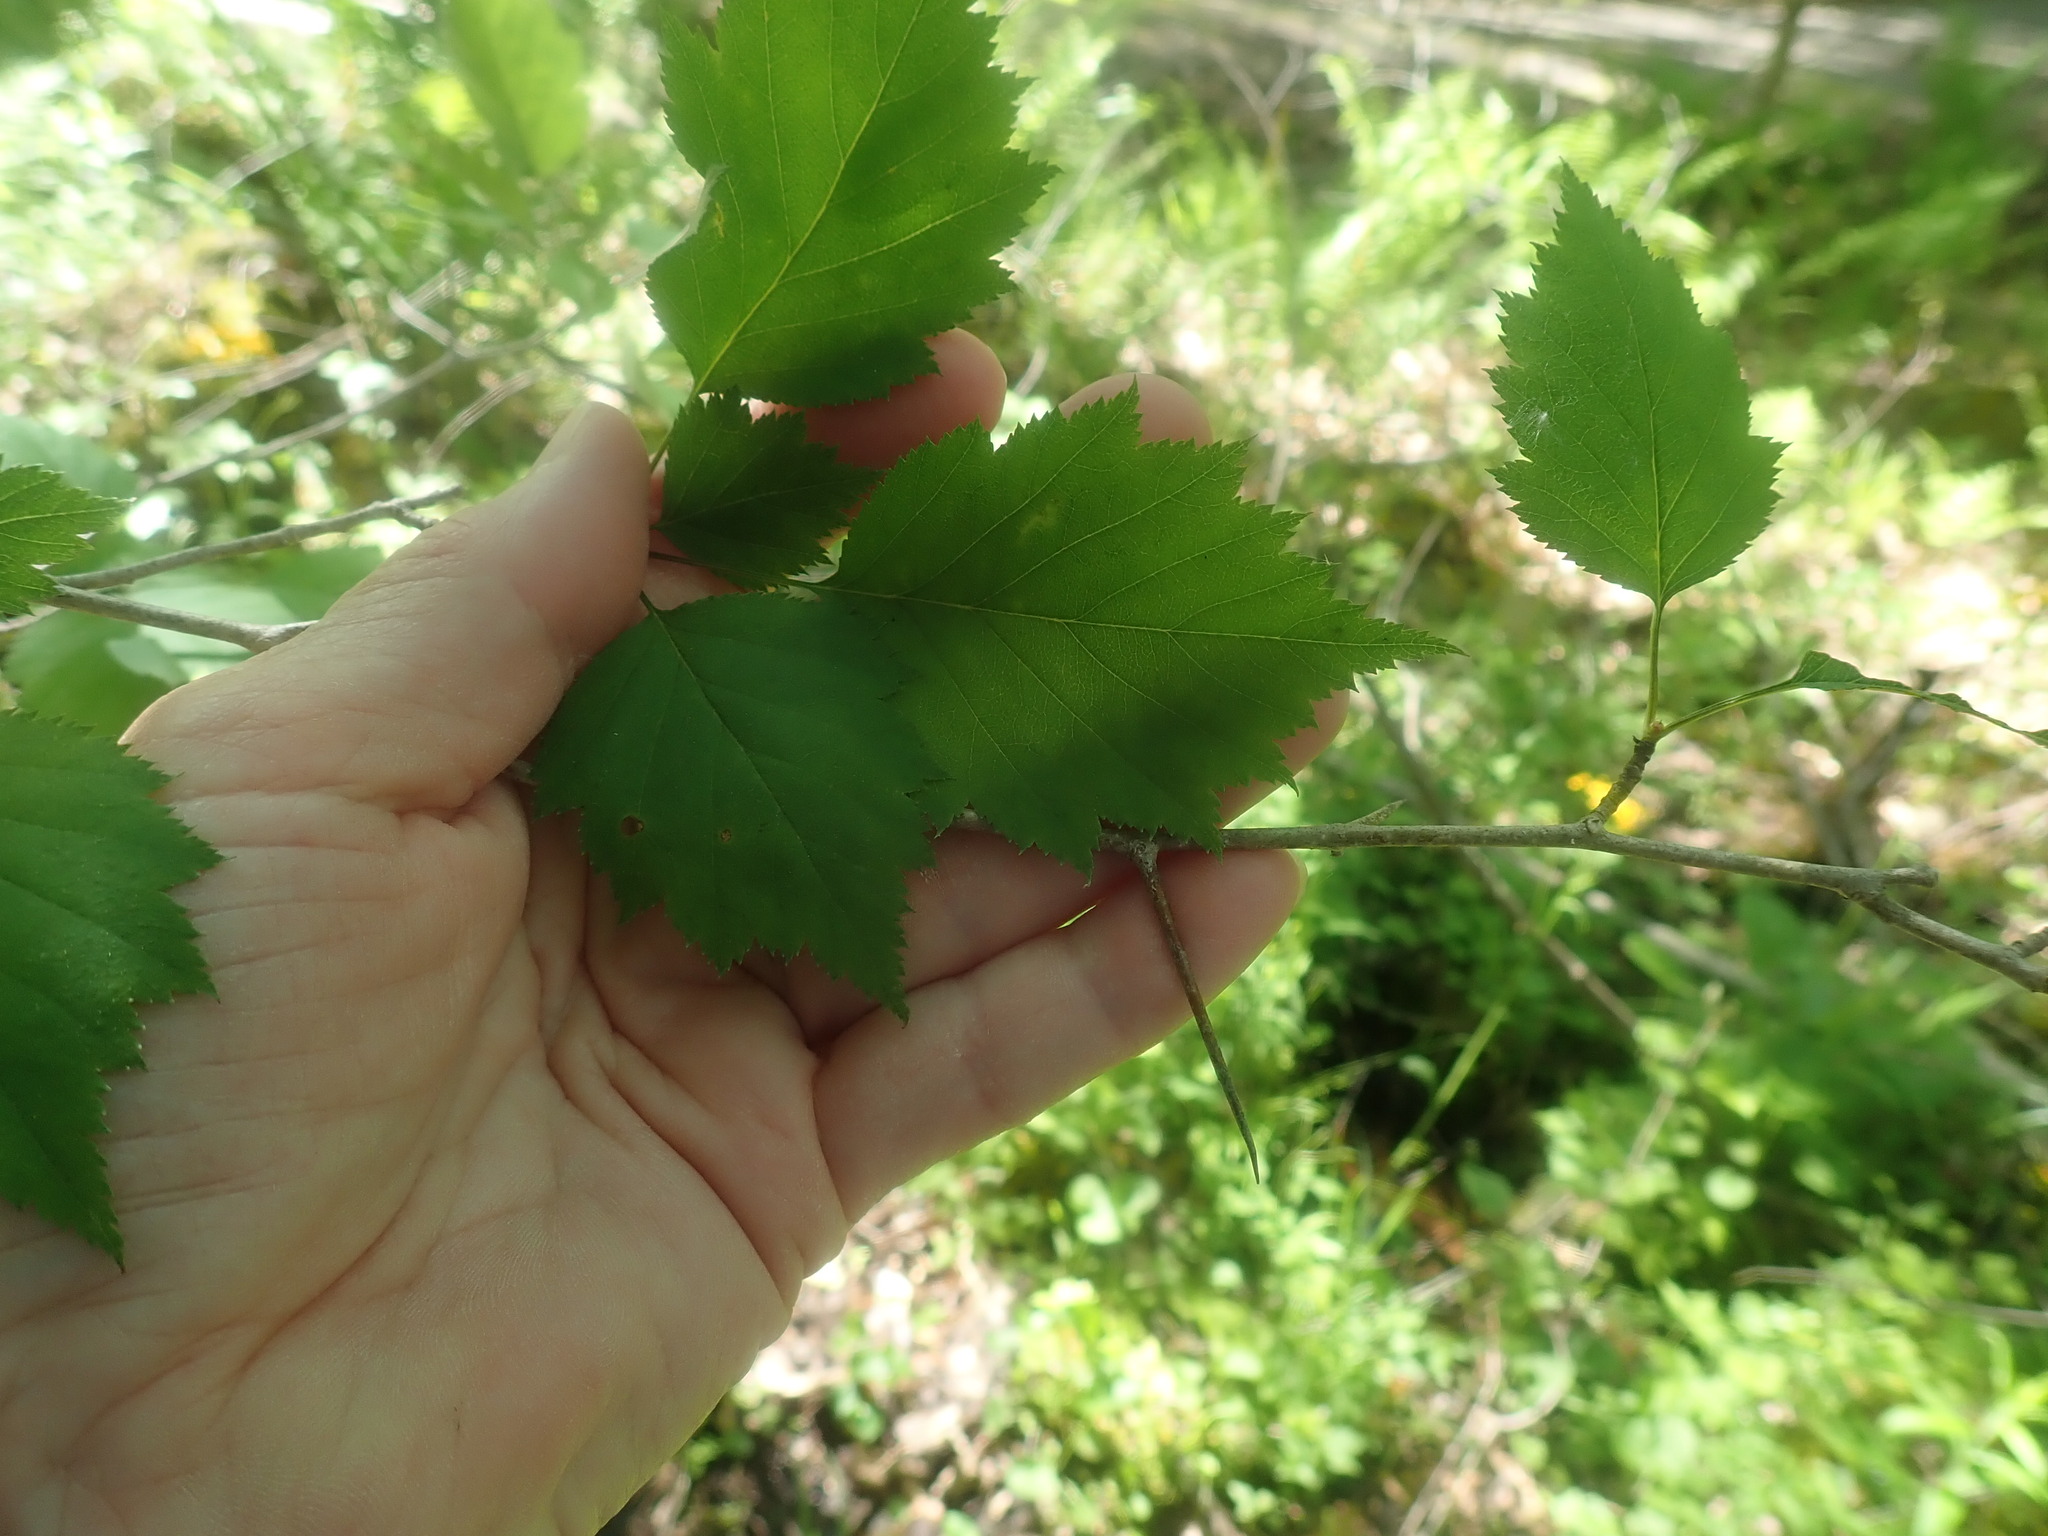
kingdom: Plantae
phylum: Tracheophyta
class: Magnoliopsida
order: Rosales
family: Rosaceae
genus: Crataegus
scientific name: Crataegus
